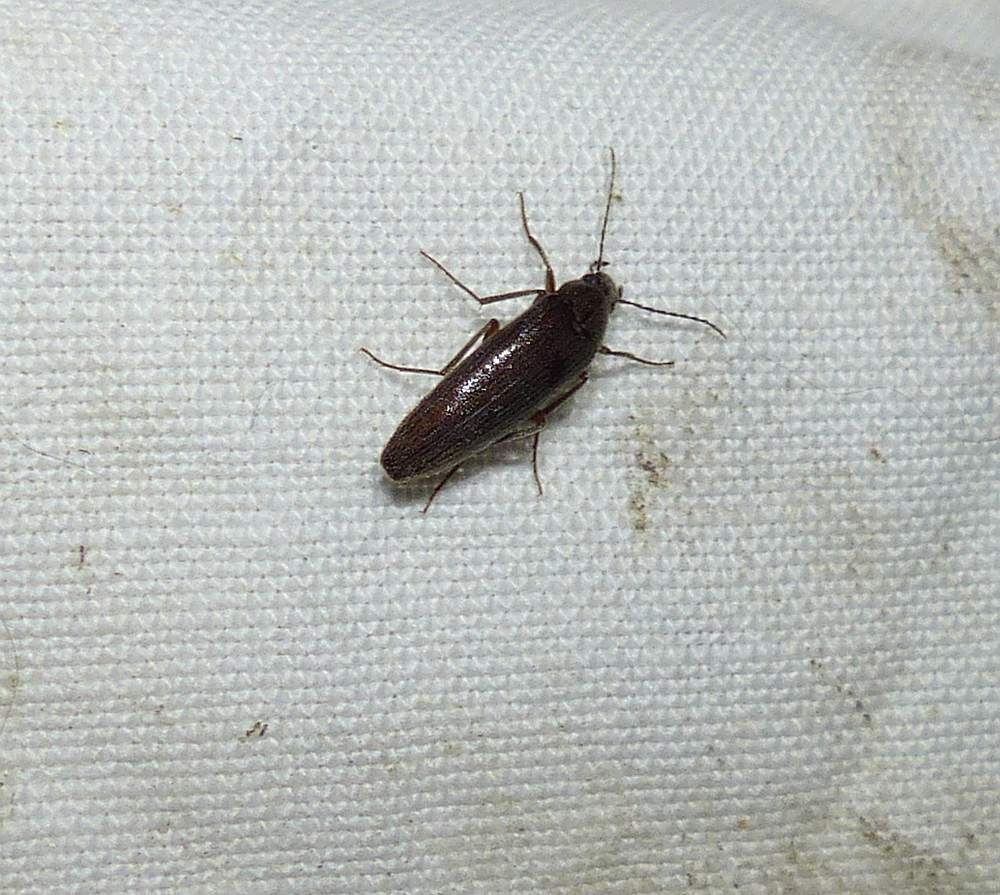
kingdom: Animalia
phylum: Arthropoda
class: Insecta
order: Coleoptera
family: Synchroidae
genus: Synchroa
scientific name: Synchroa punctata
